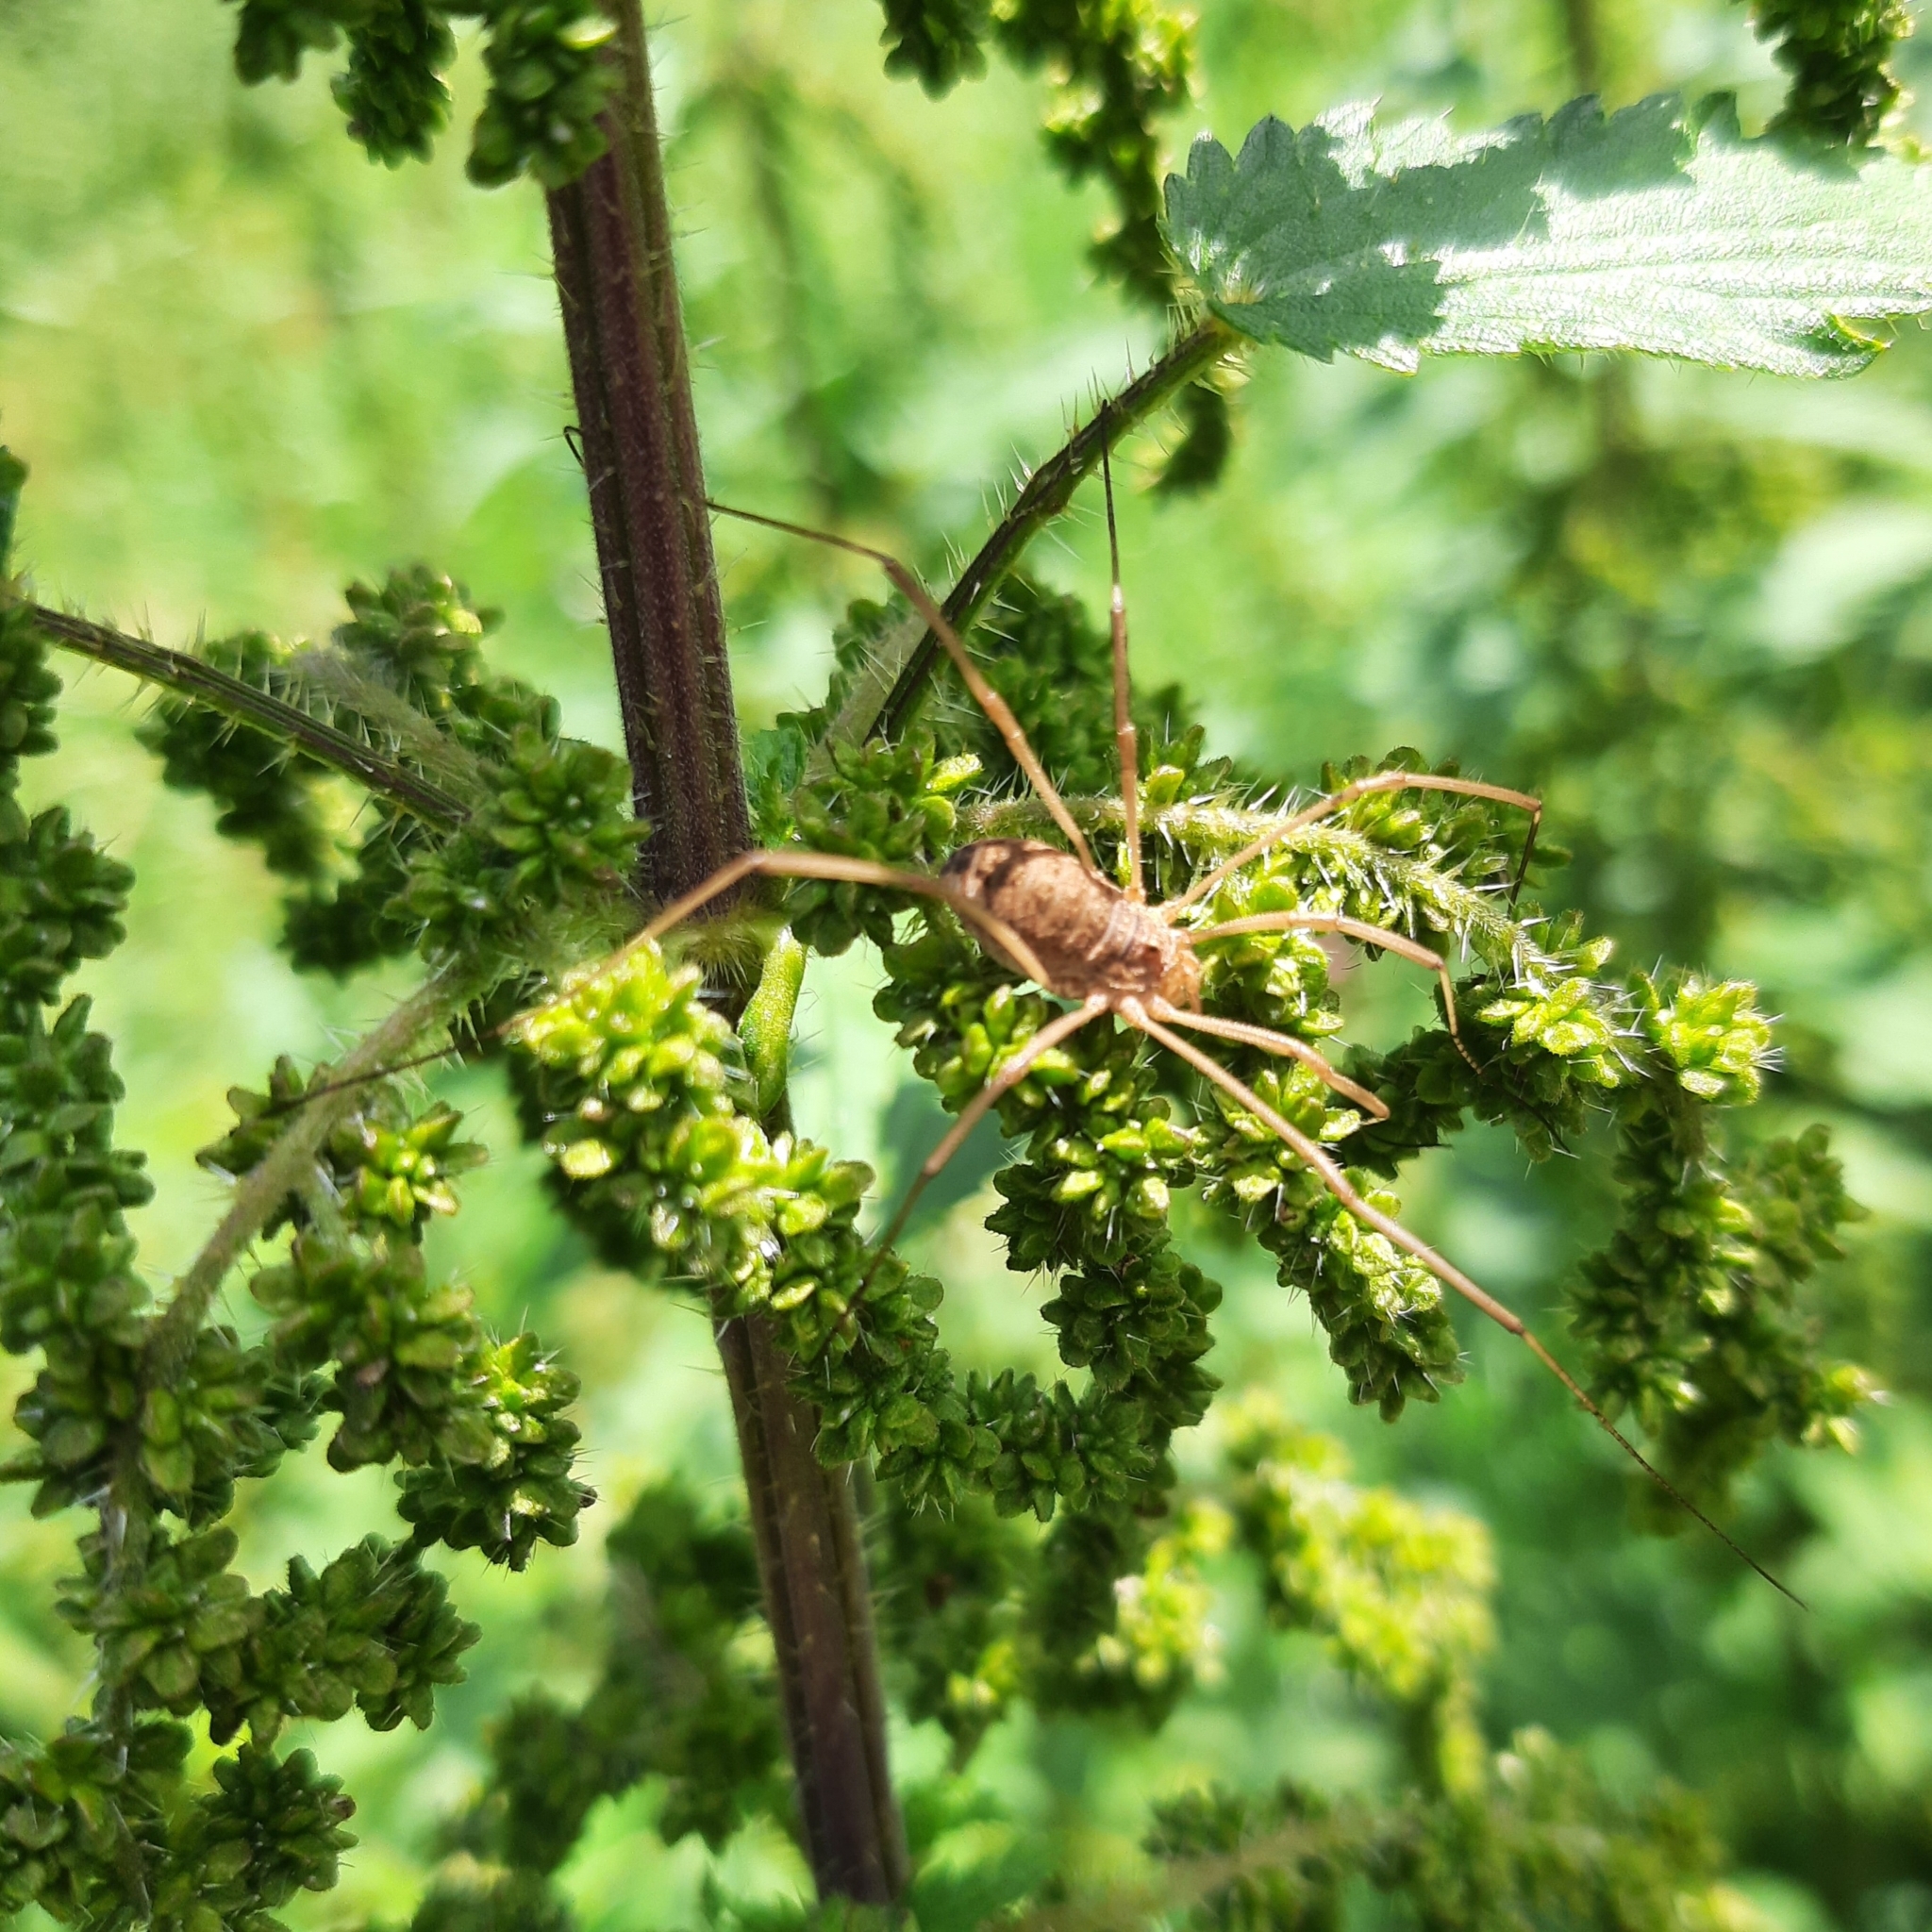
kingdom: Animalia
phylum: Arthropoda
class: Arachnida
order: Opiliones
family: Phalangiidae
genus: Phalangium
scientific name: Phalangium opilio
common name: Daddy longleg
